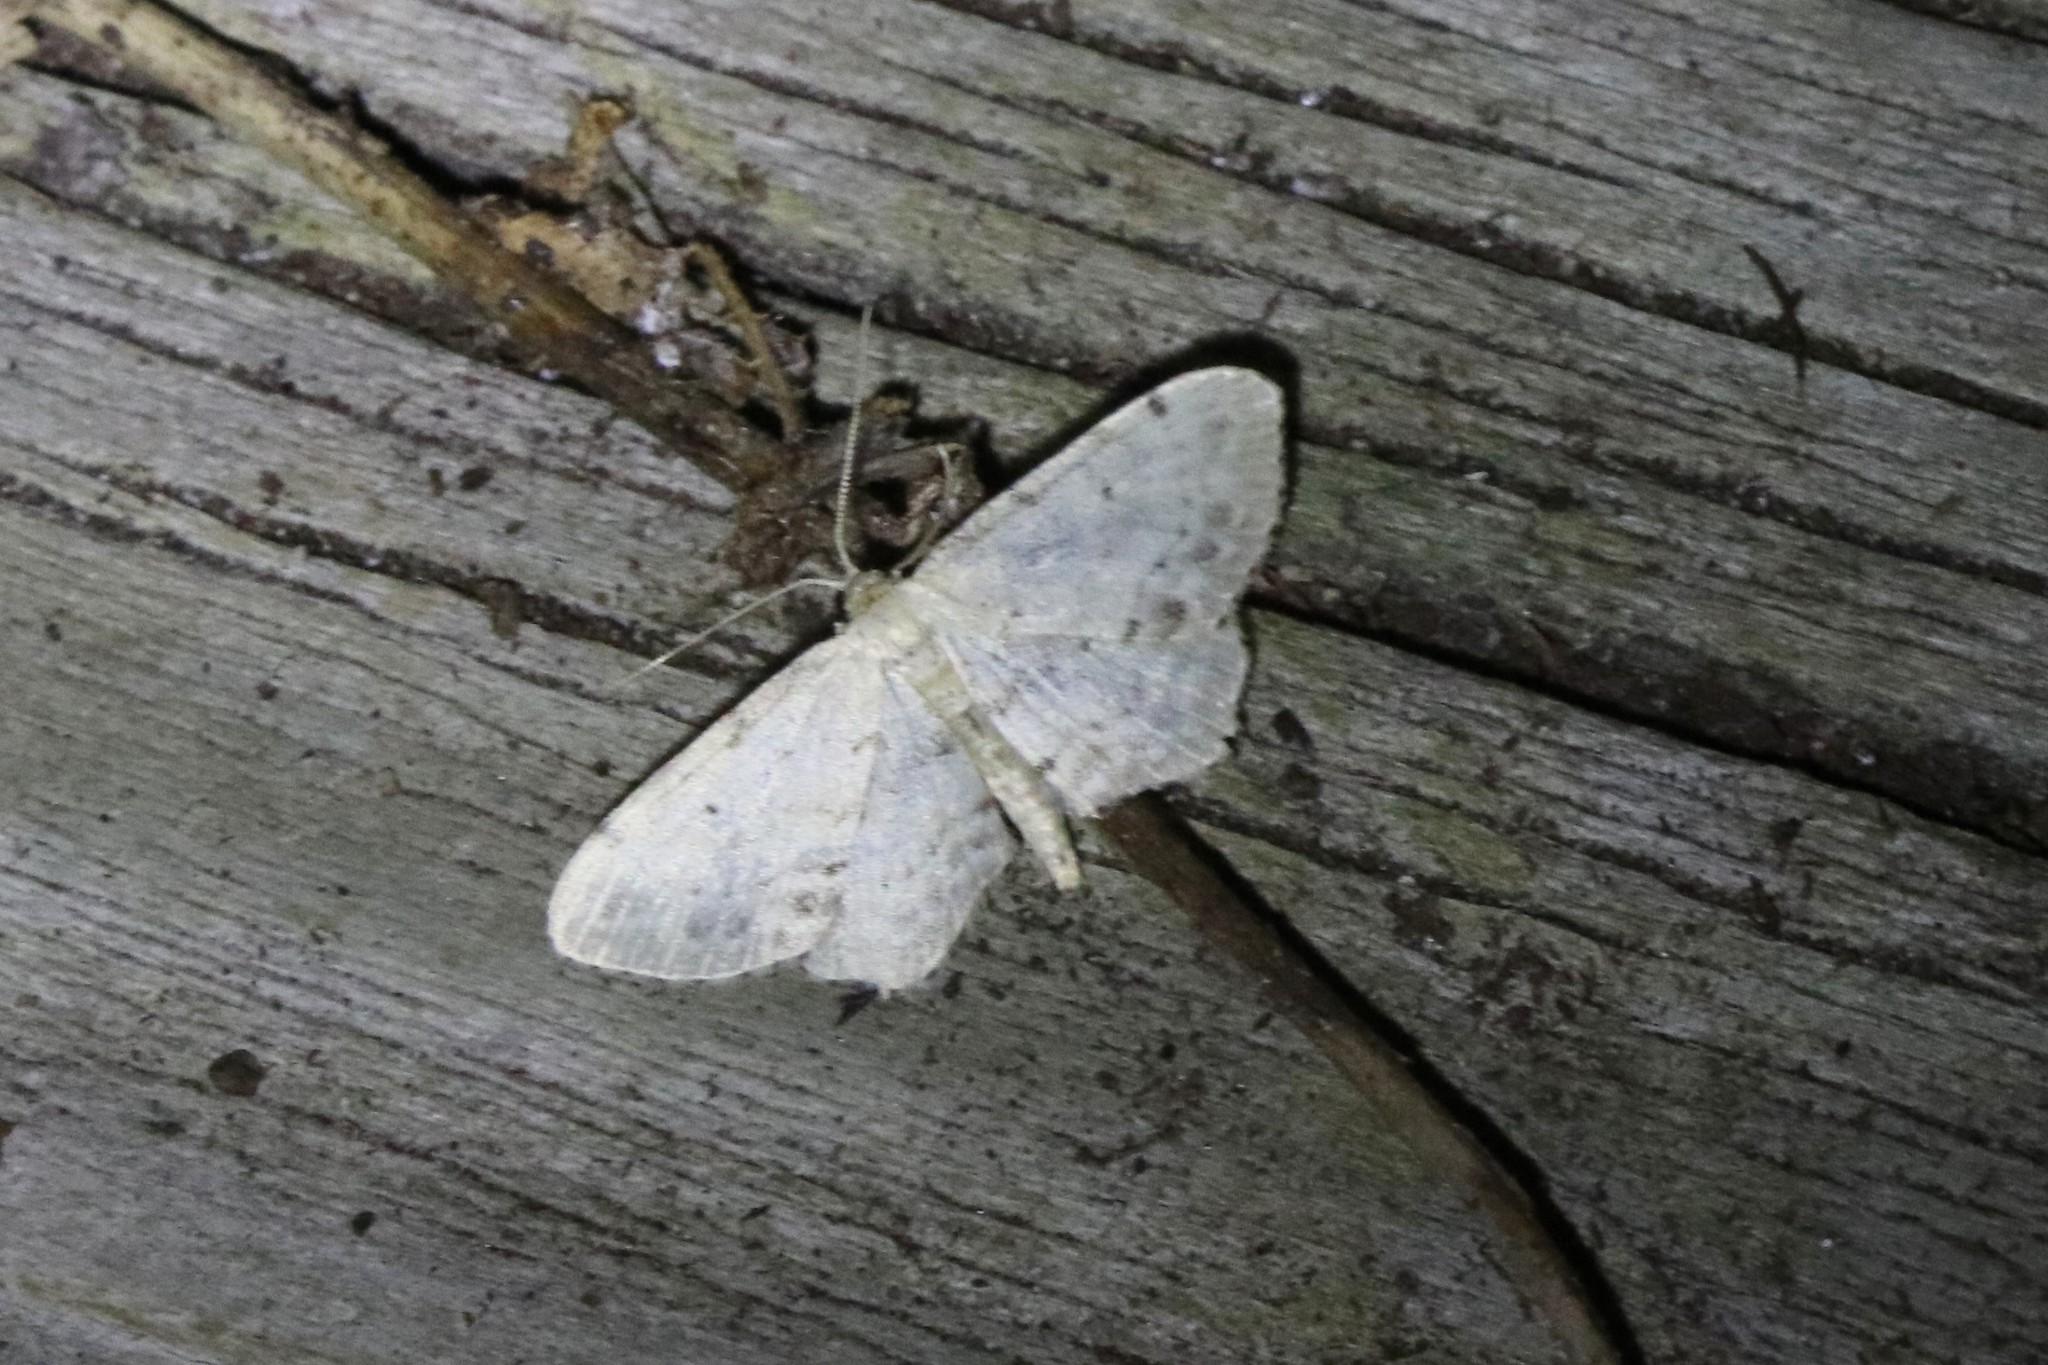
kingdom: Animalia
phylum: Arthropoda
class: Insecta
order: Lepidoptera
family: Geometridae
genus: Idaea
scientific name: Idaea dimidiata
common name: Single-dotted wave
